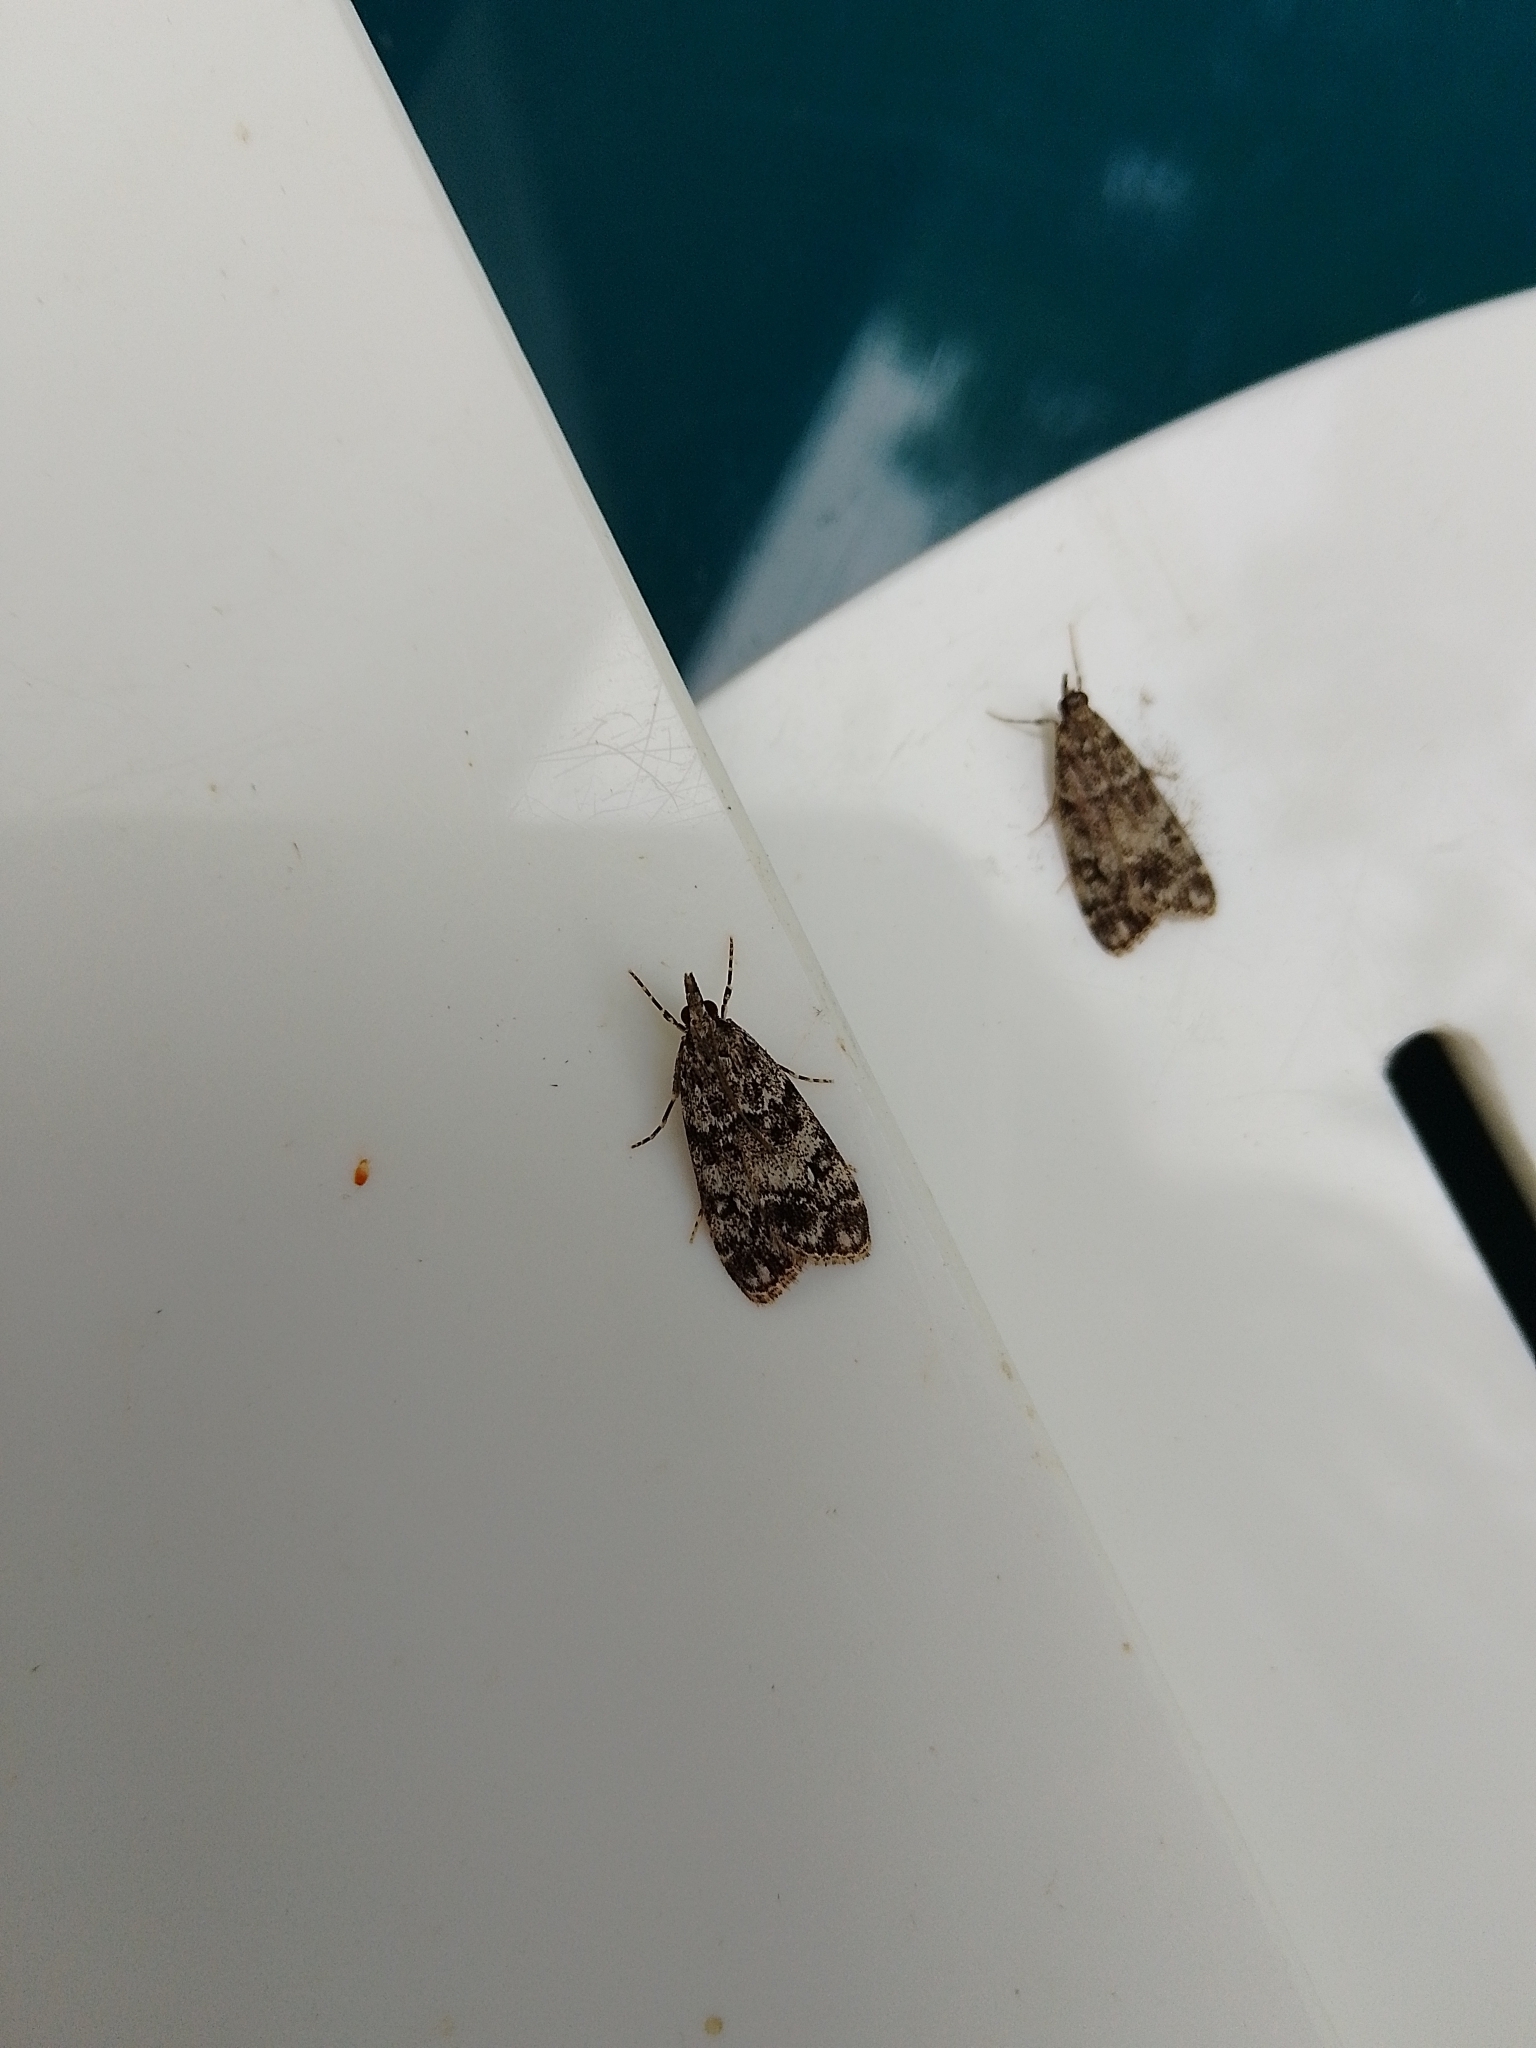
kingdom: Animalia
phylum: Arthropoda
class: Insecta
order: Lepidoptera
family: Crambidae
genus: Eudonia
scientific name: Eudonia lacustrata
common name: Little grey
